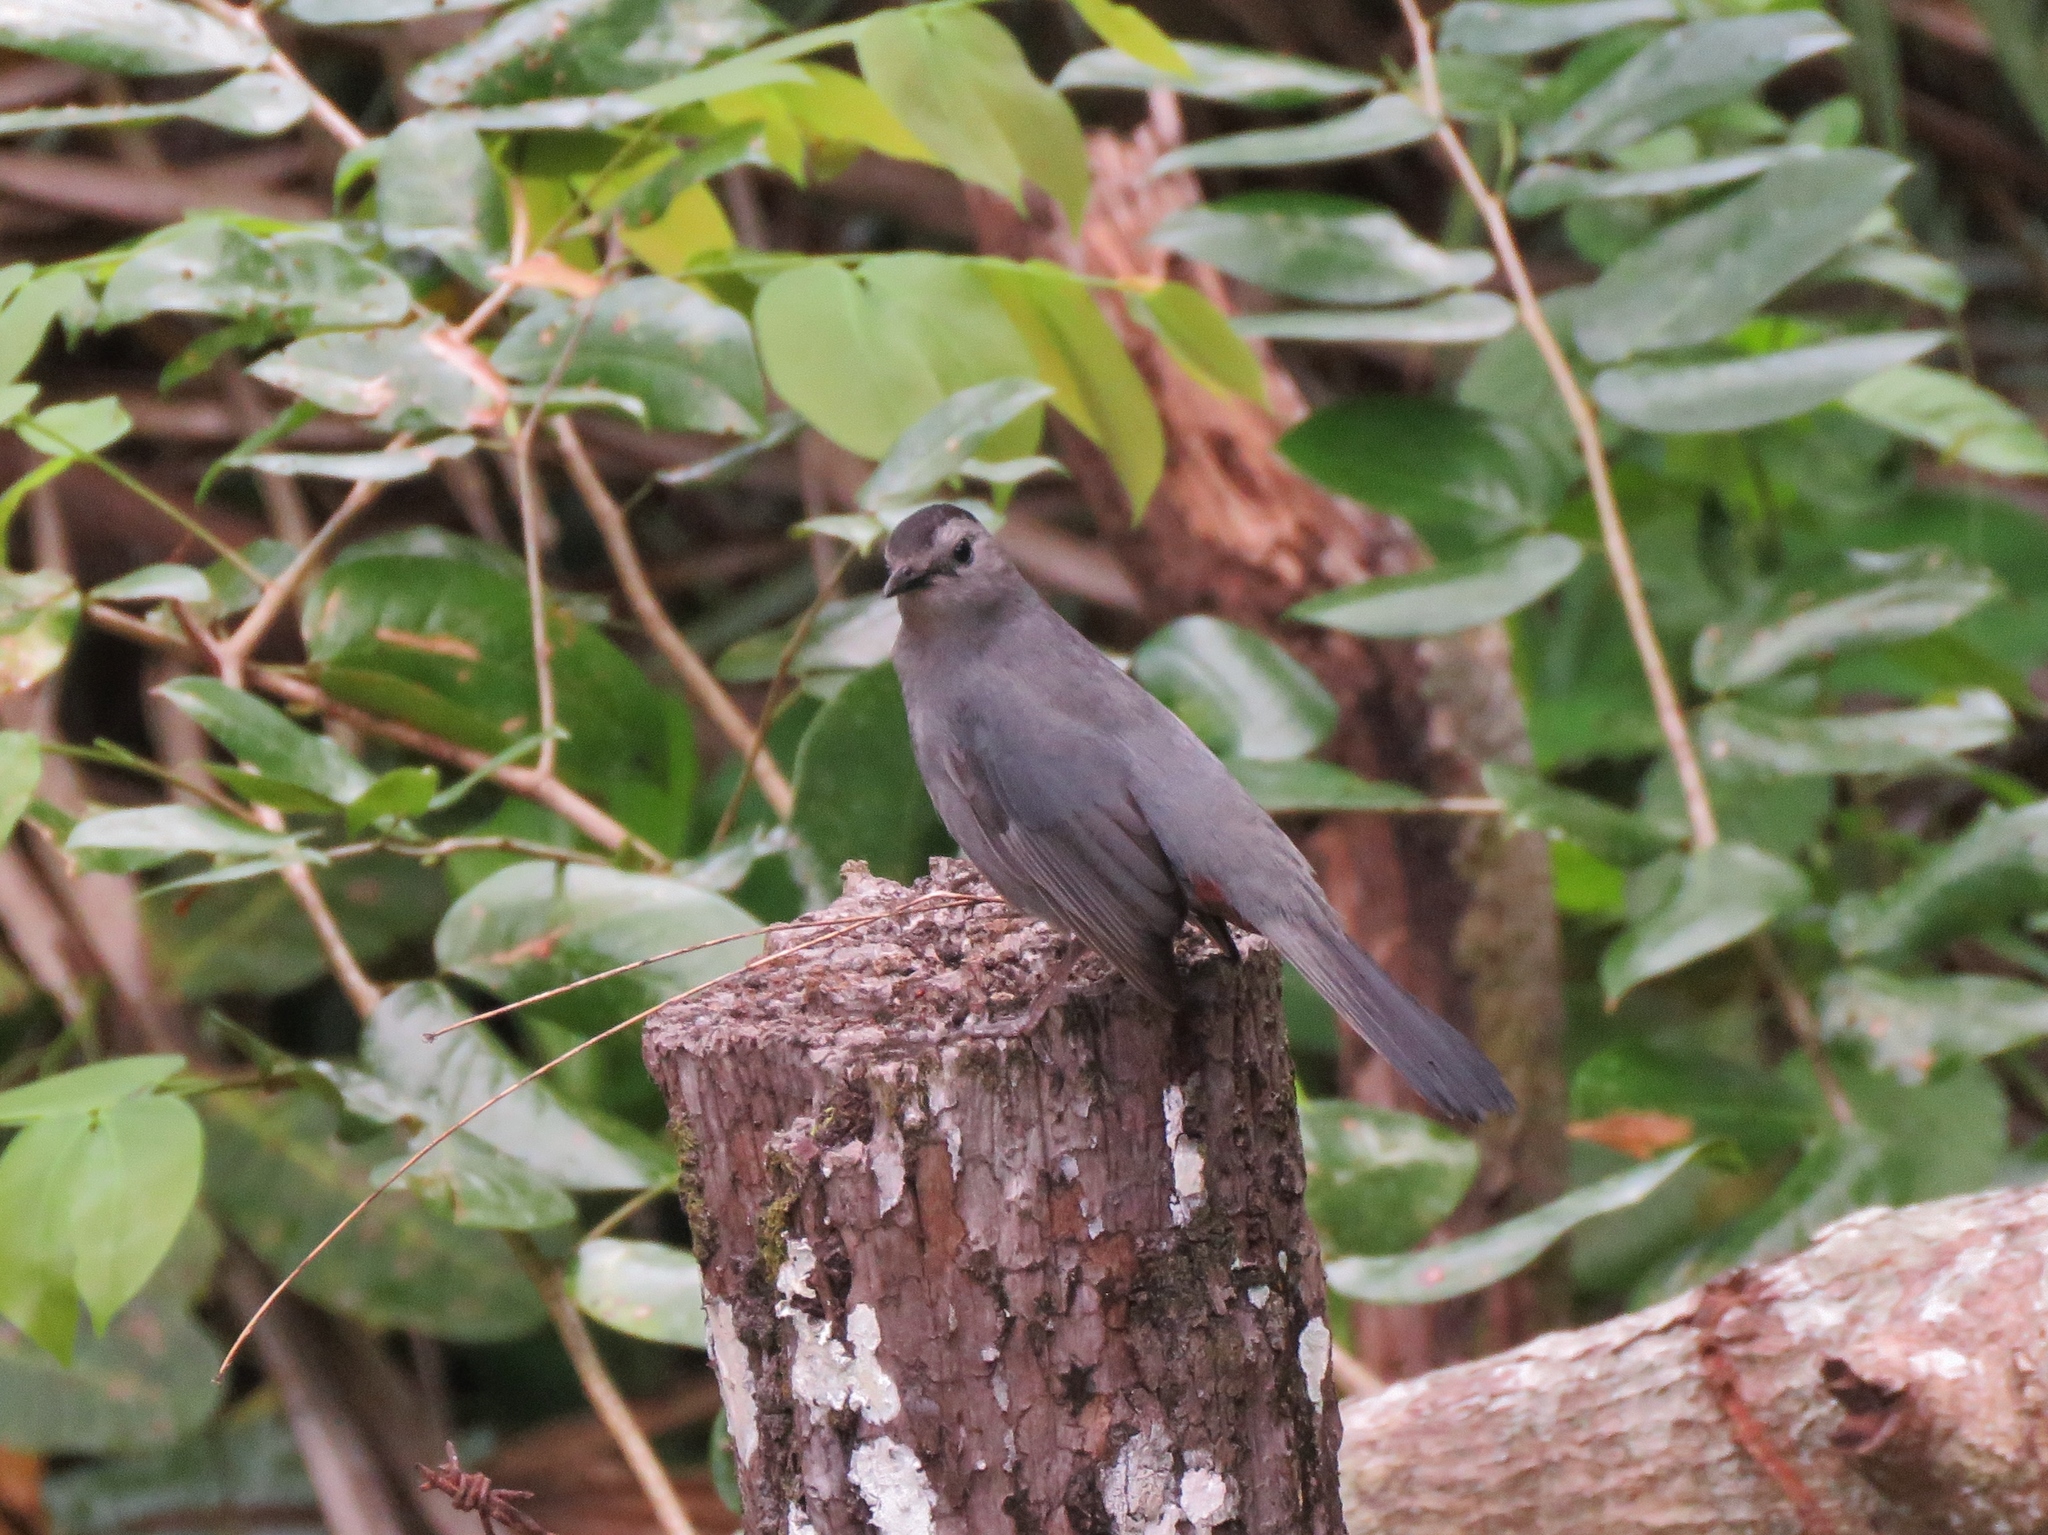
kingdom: Animalia
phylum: Chordata
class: Aves
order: Passeriformes
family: Mimidae
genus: Dumetella
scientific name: Dumetella carolinensis
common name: Gray catbird
